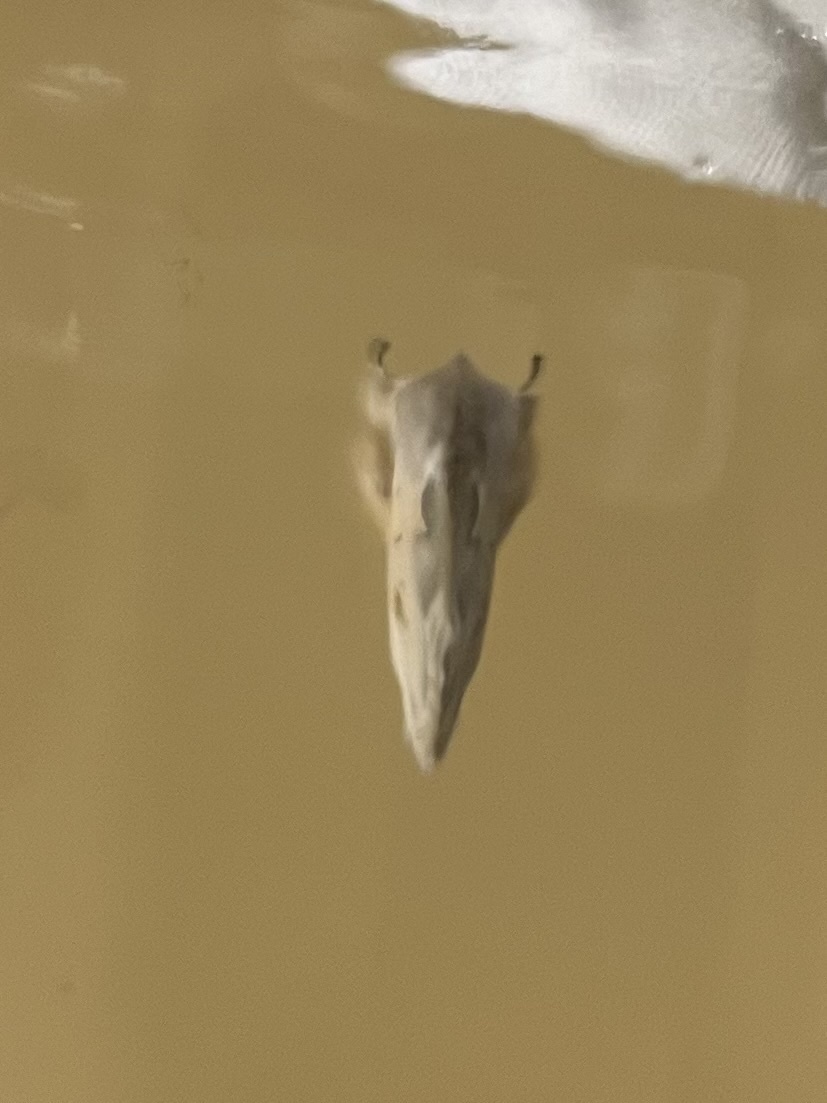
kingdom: Animalia
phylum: Arthropoda
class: Insecta
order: Lepidoptera
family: Erebidae
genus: Naroma
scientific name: Naroma varipes
